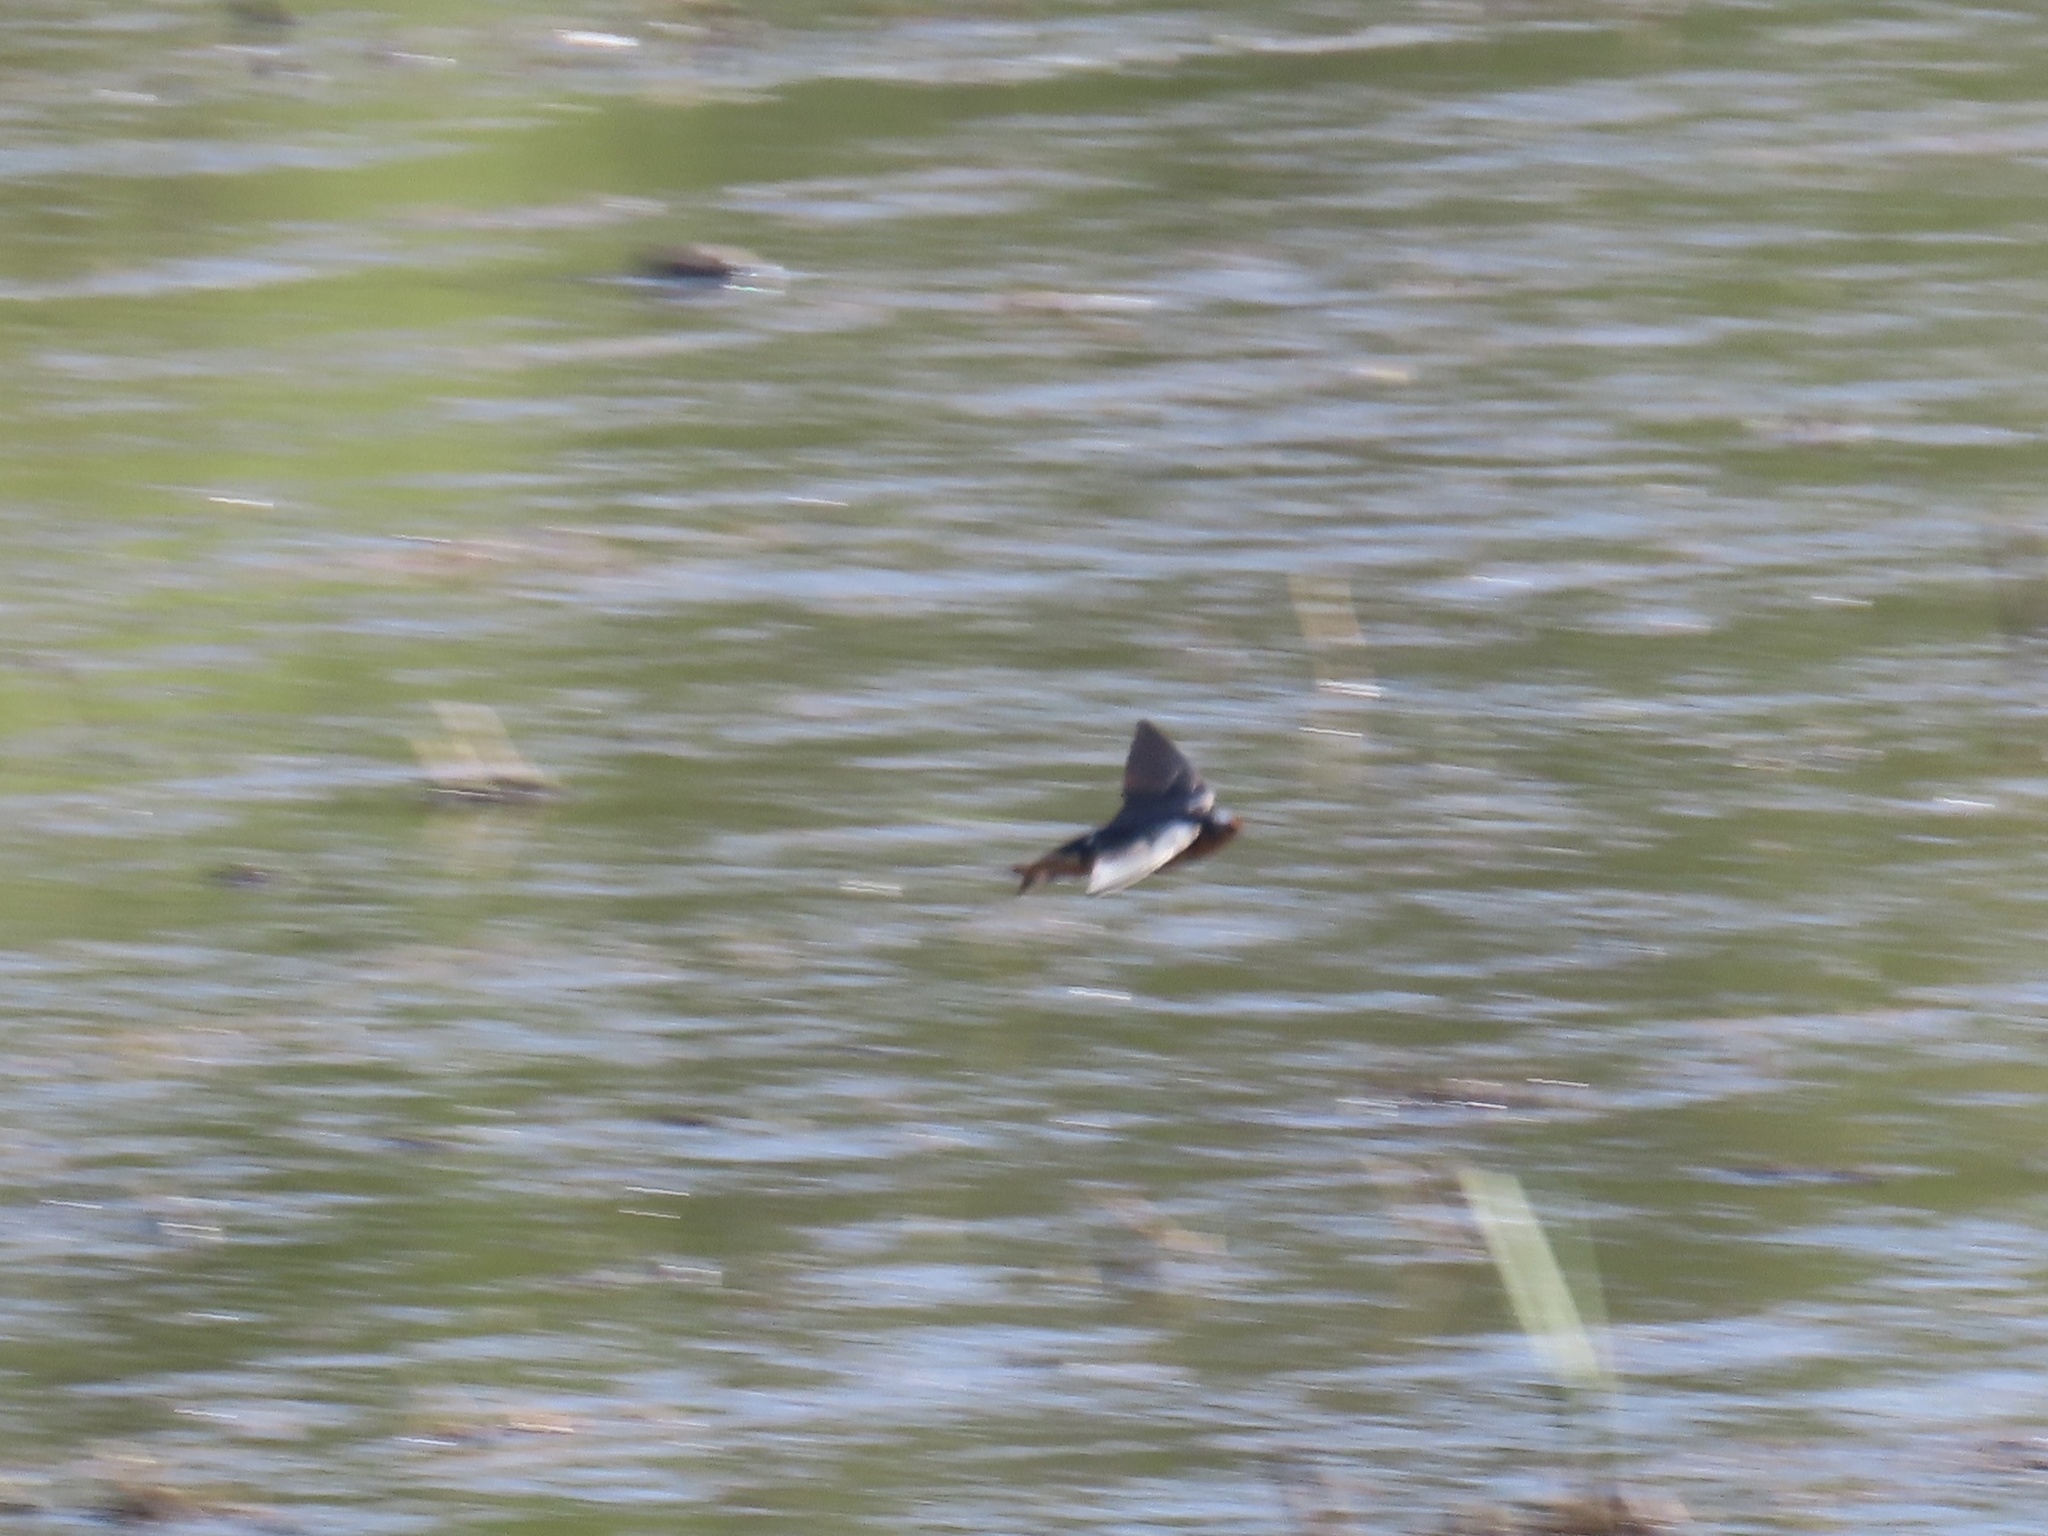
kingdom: Animalia
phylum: Chordata
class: Aves
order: Passeriformes
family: Hirundinidae
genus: Hirundo
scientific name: Hirundo rustica
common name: Barn swallow
